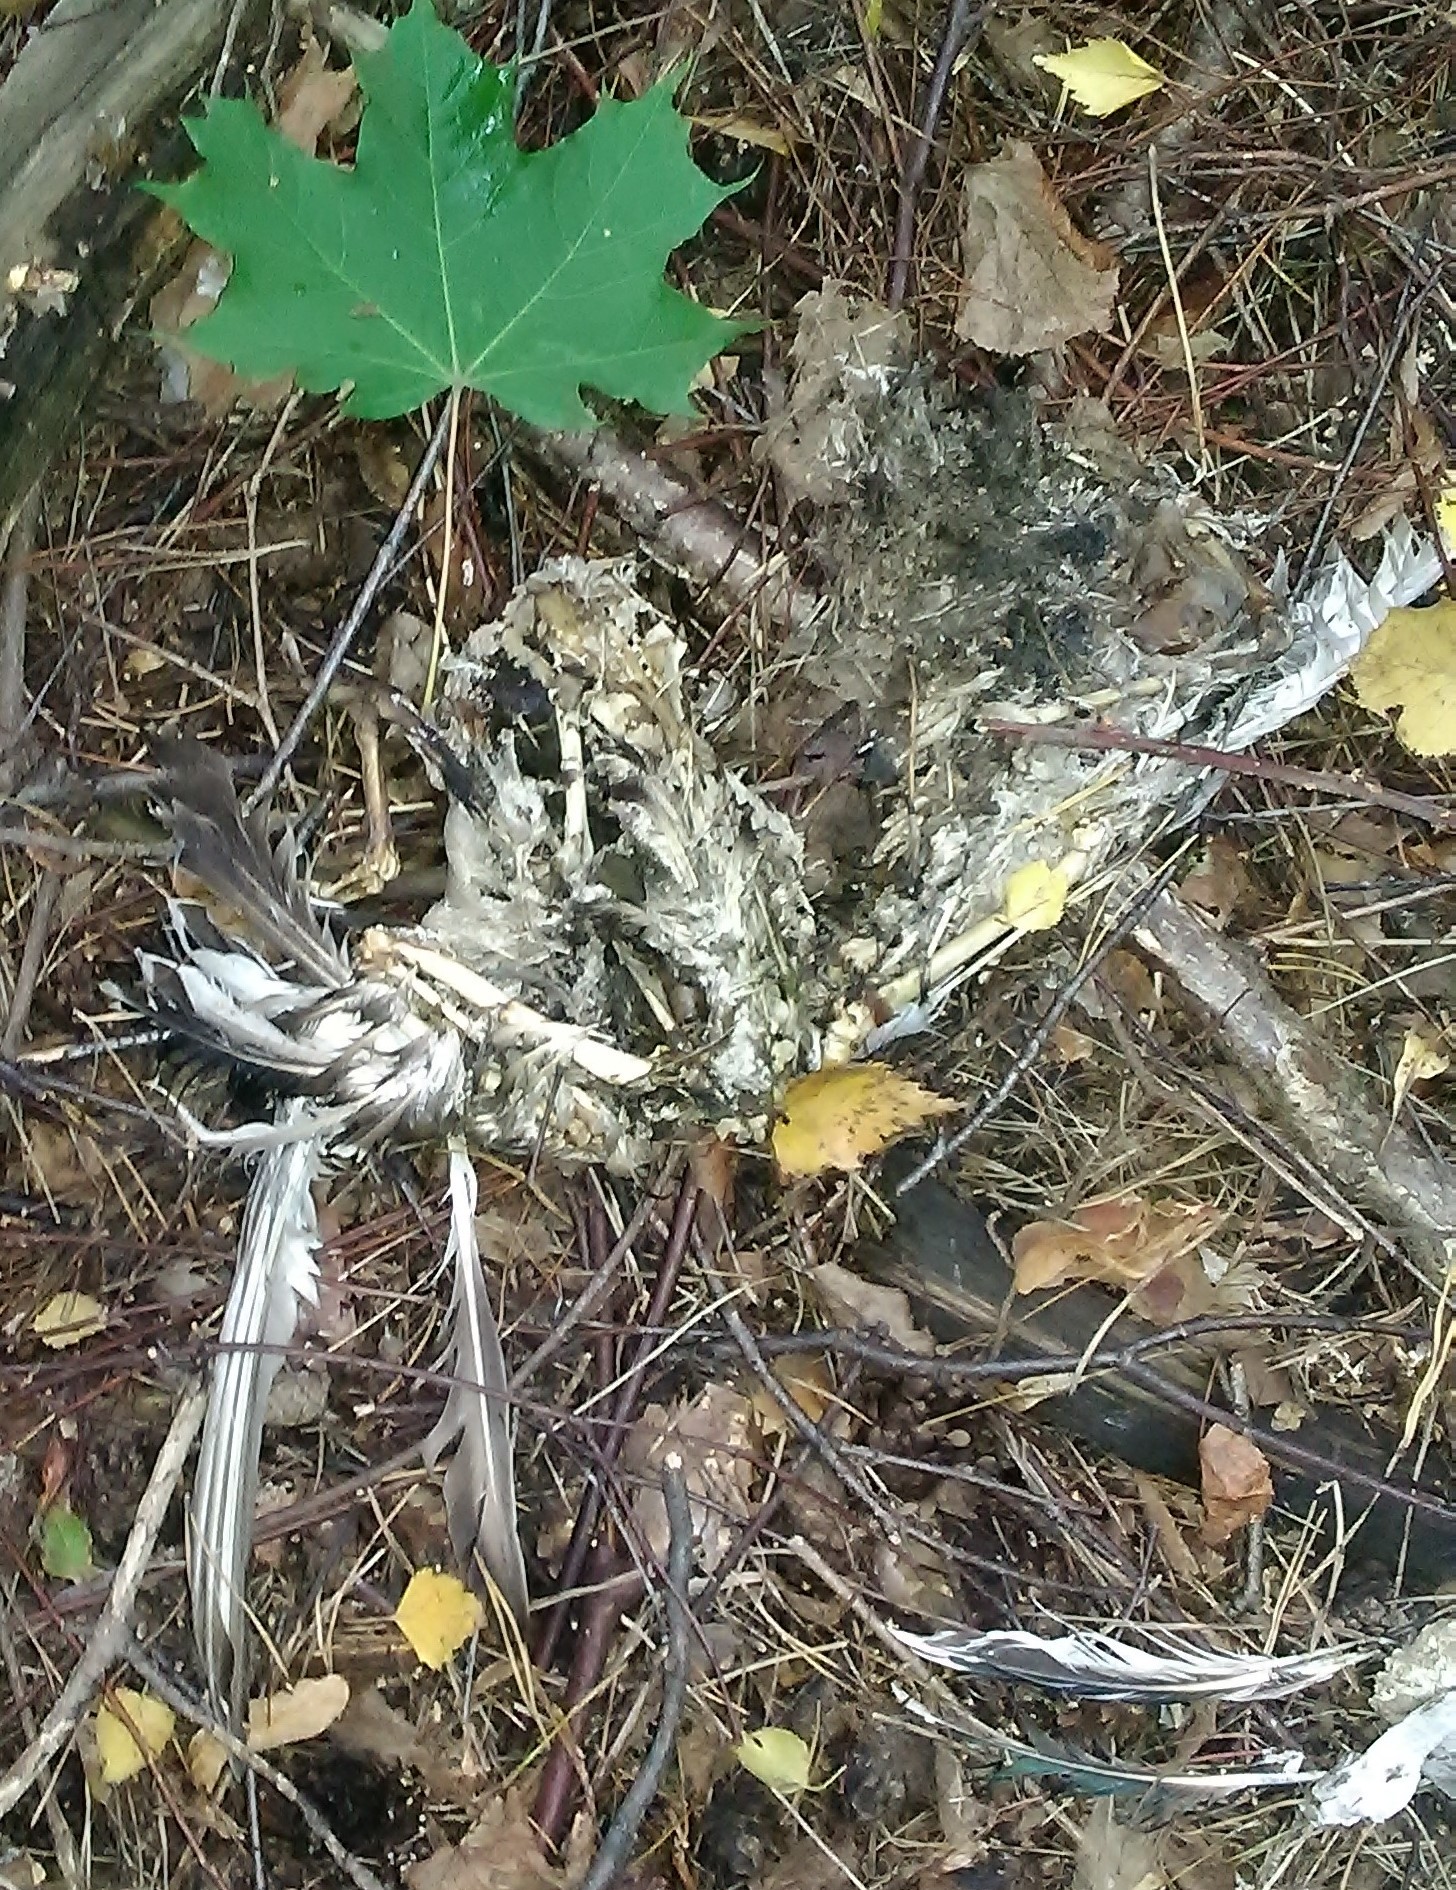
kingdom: Animalia
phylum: Chordata
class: Aves
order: Anseriformes
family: Anatidae
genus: Anas
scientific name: Anas platyrhynchos
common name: Mallard
